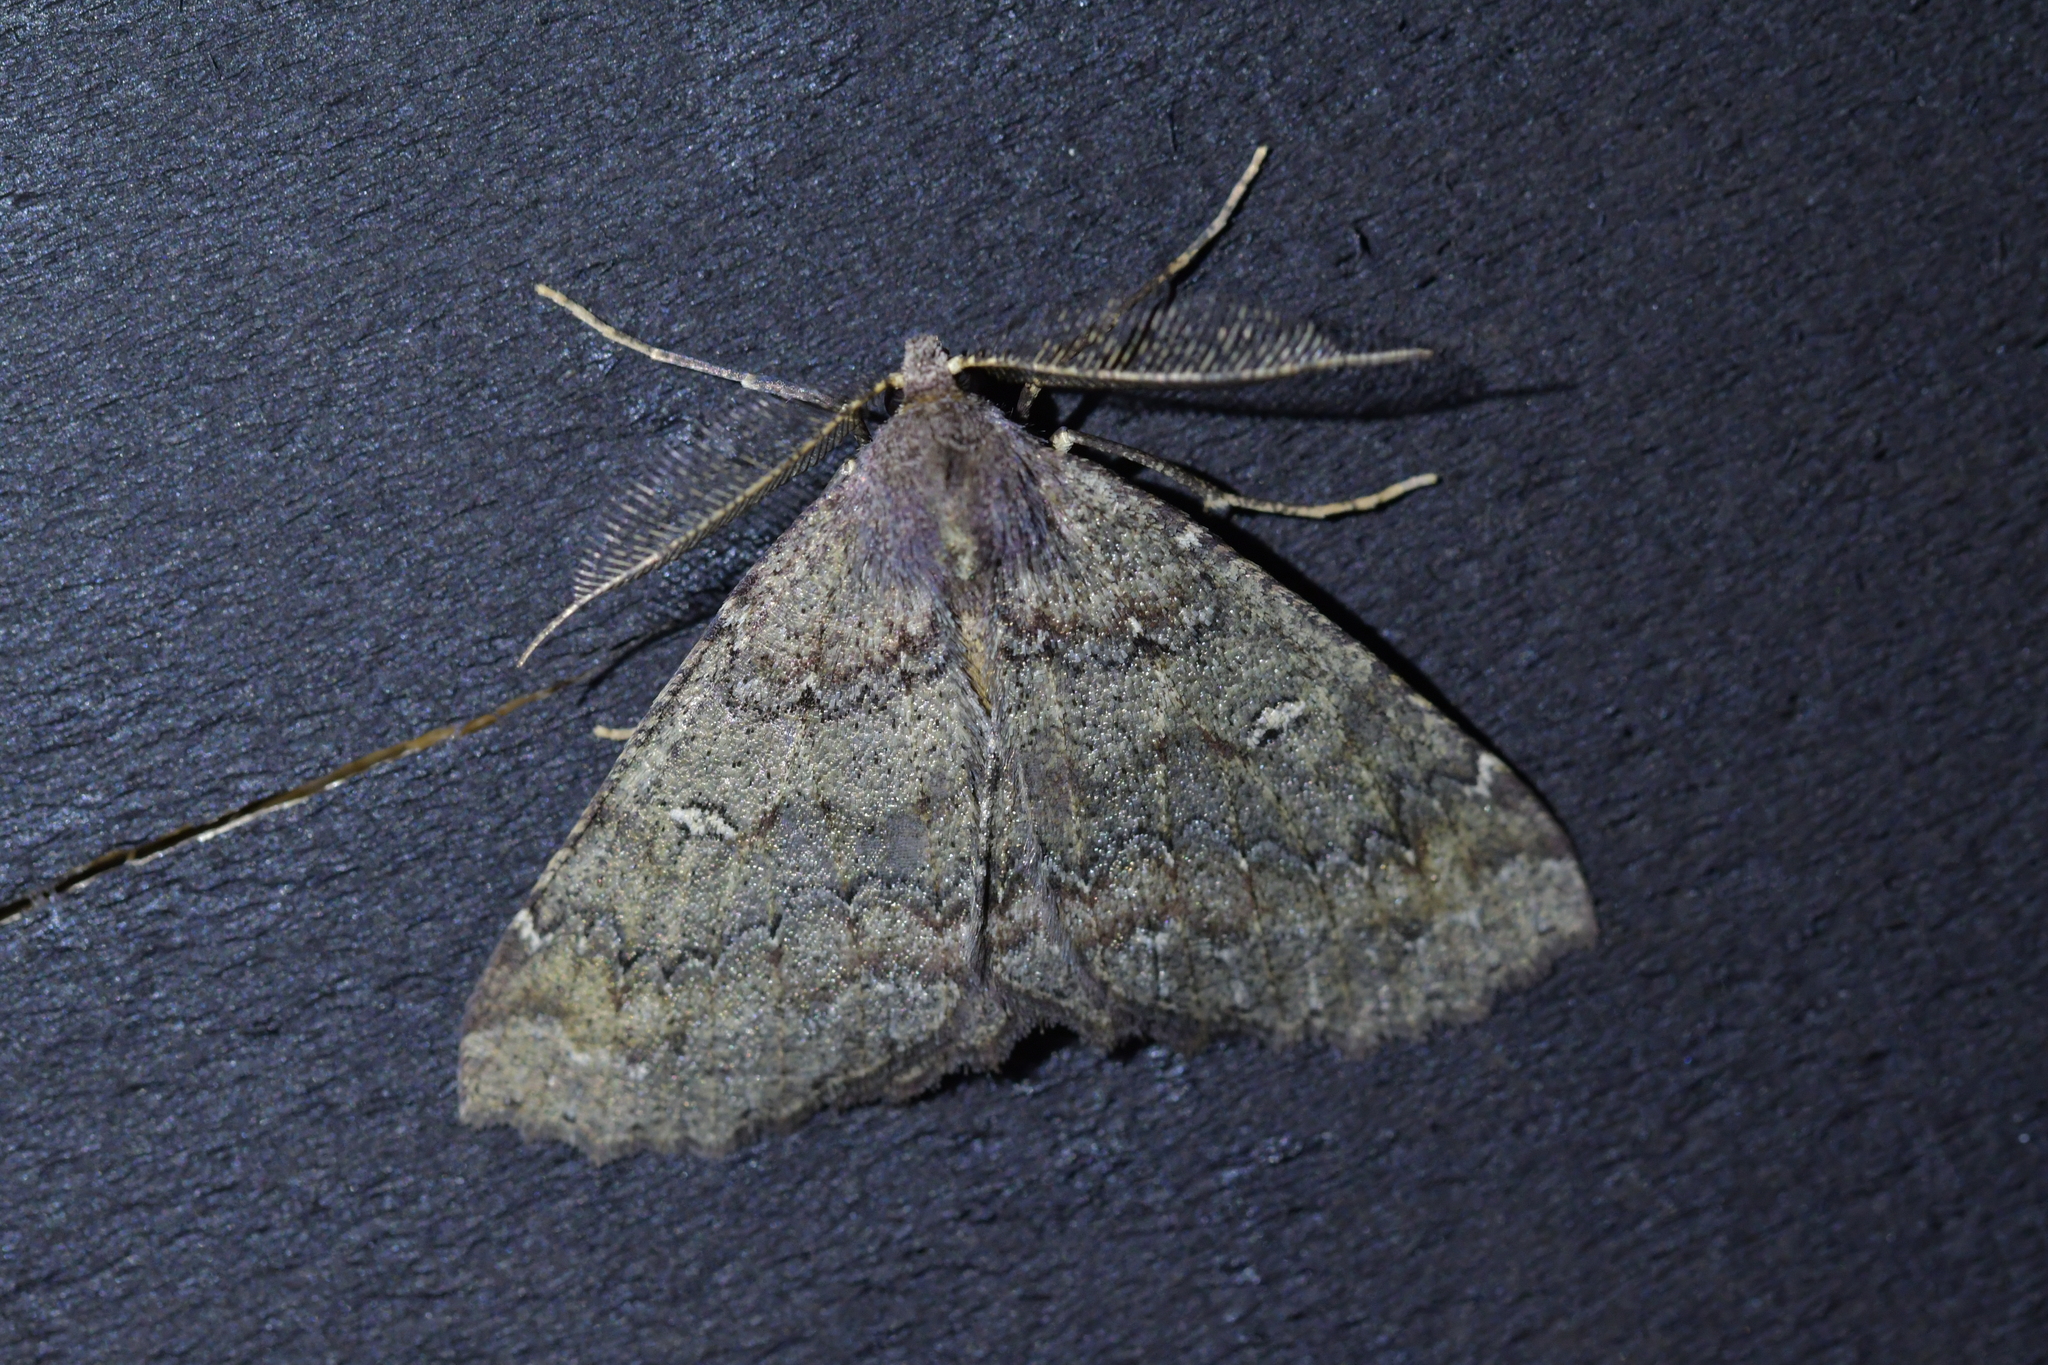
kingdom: Animalia
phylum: Arthropoda
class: Insecta
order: Lepidoptera
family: Geometridae
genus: Cleora
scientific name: Cleora scriptaria
